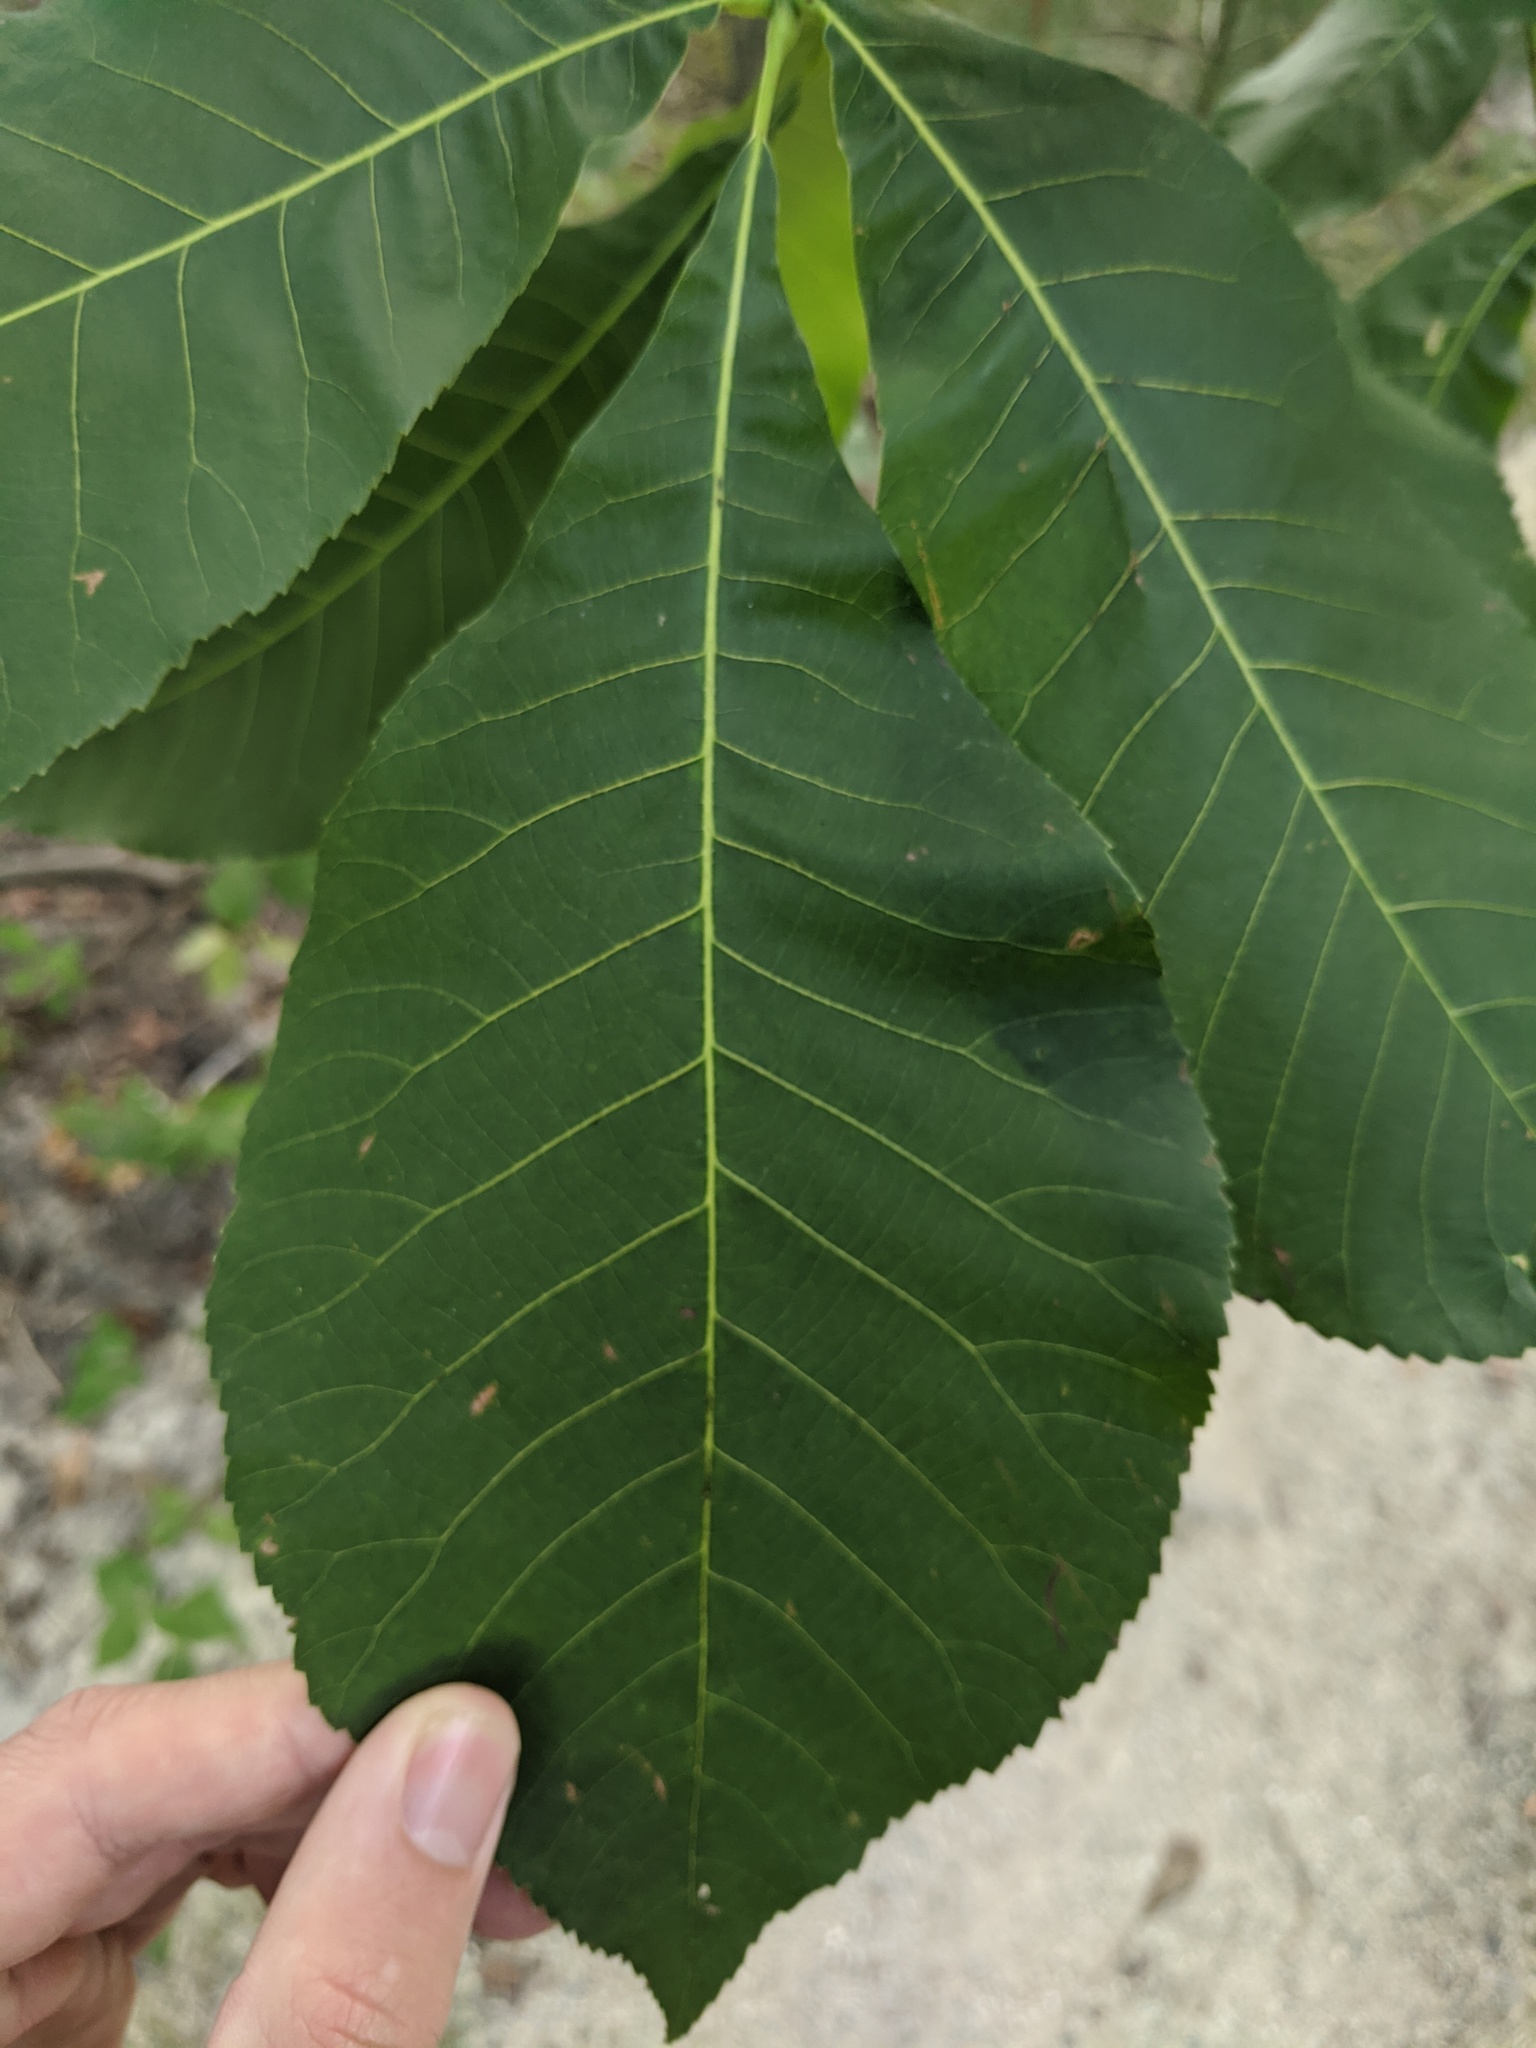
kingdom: Plantae
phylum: Tracheophyta
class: Magnoliopsida
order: Fagales
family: Juglandaceae
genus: Carya
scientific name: Carya ovata
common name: Shagbark hickory
